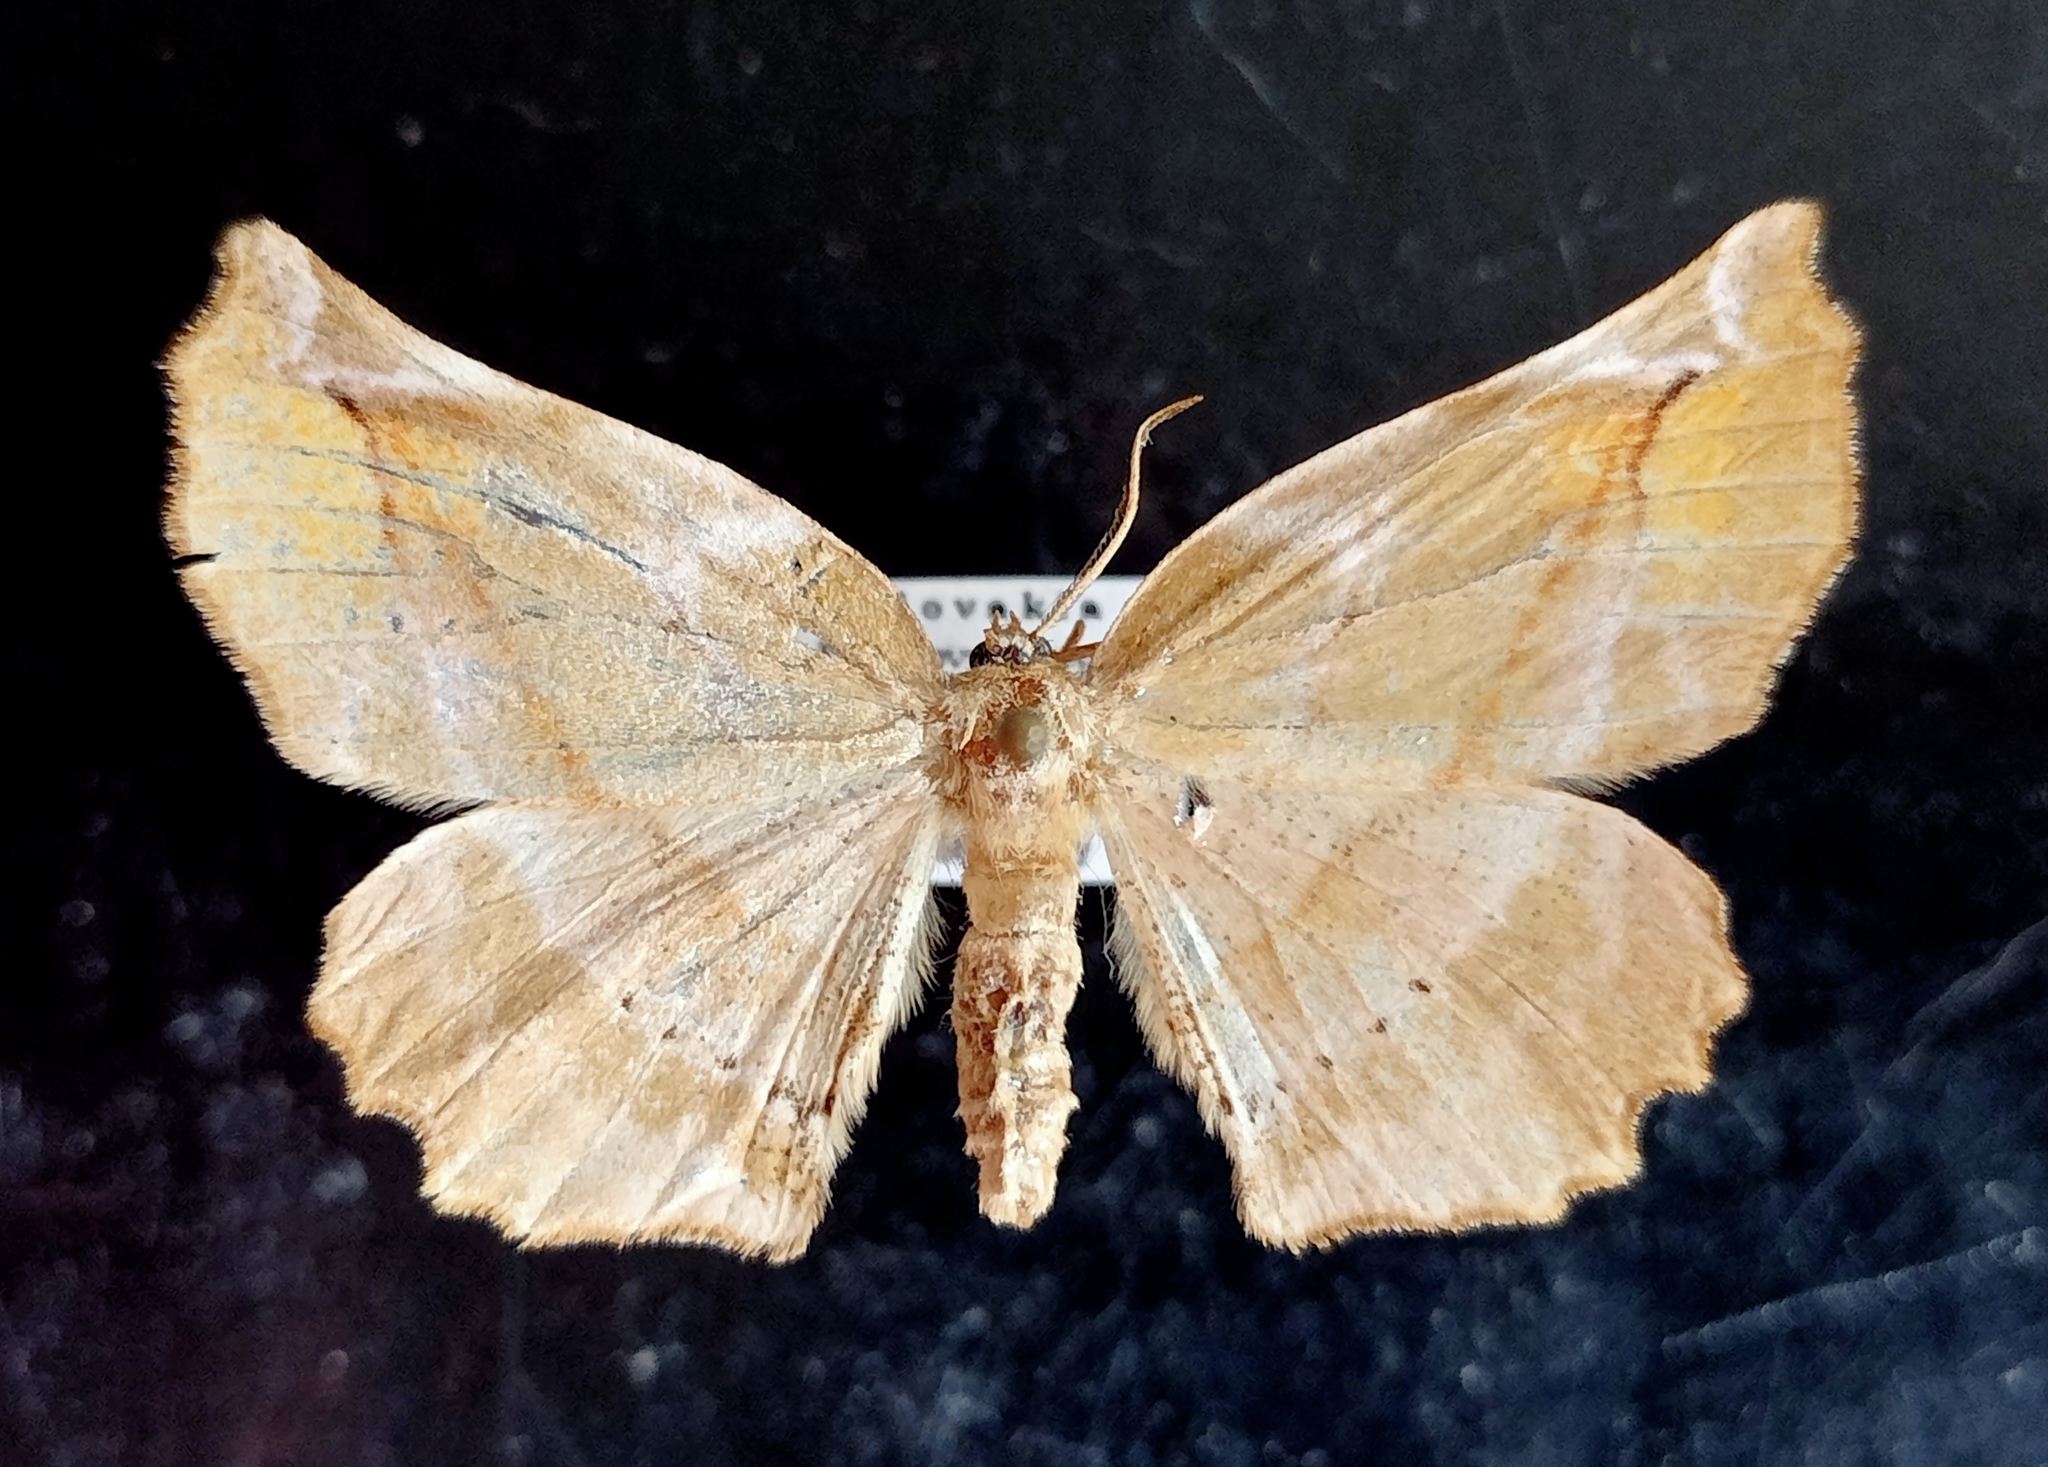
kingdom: Animalia
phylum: Arthropoda
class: Insecta
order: Lepidoptera
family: Geometridae
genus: Apeira
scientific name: Apeira syringaria
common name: Lilac beauty
